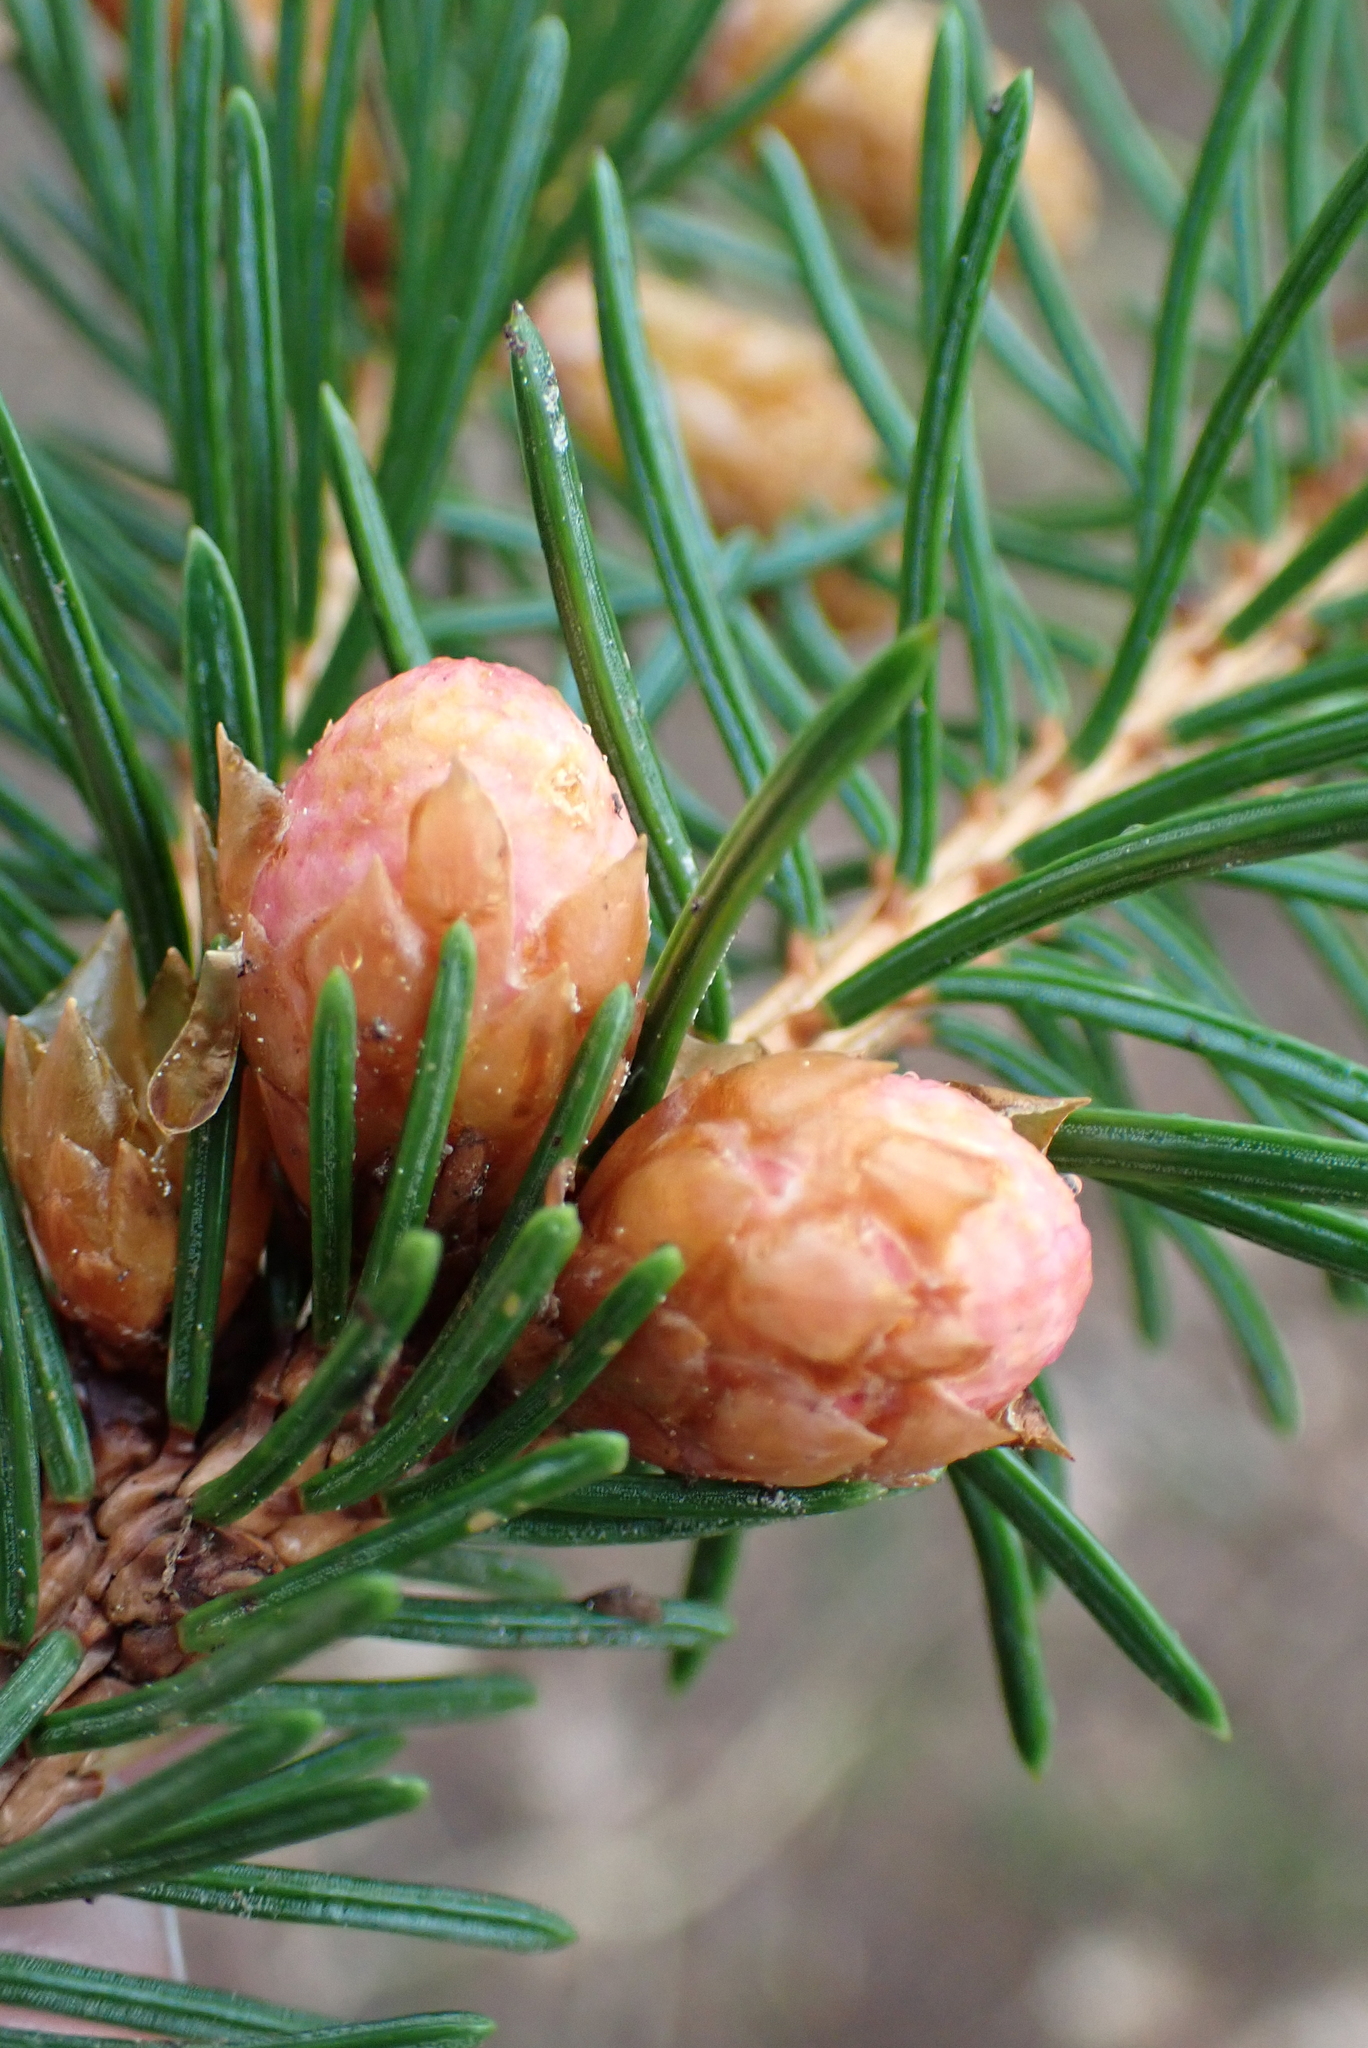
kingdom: Plantae
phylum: Tracheophyta
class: Pinopsida
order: Pinales
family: Pinaceae
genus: Picea
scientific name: Picea abies
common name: Norway spruce
